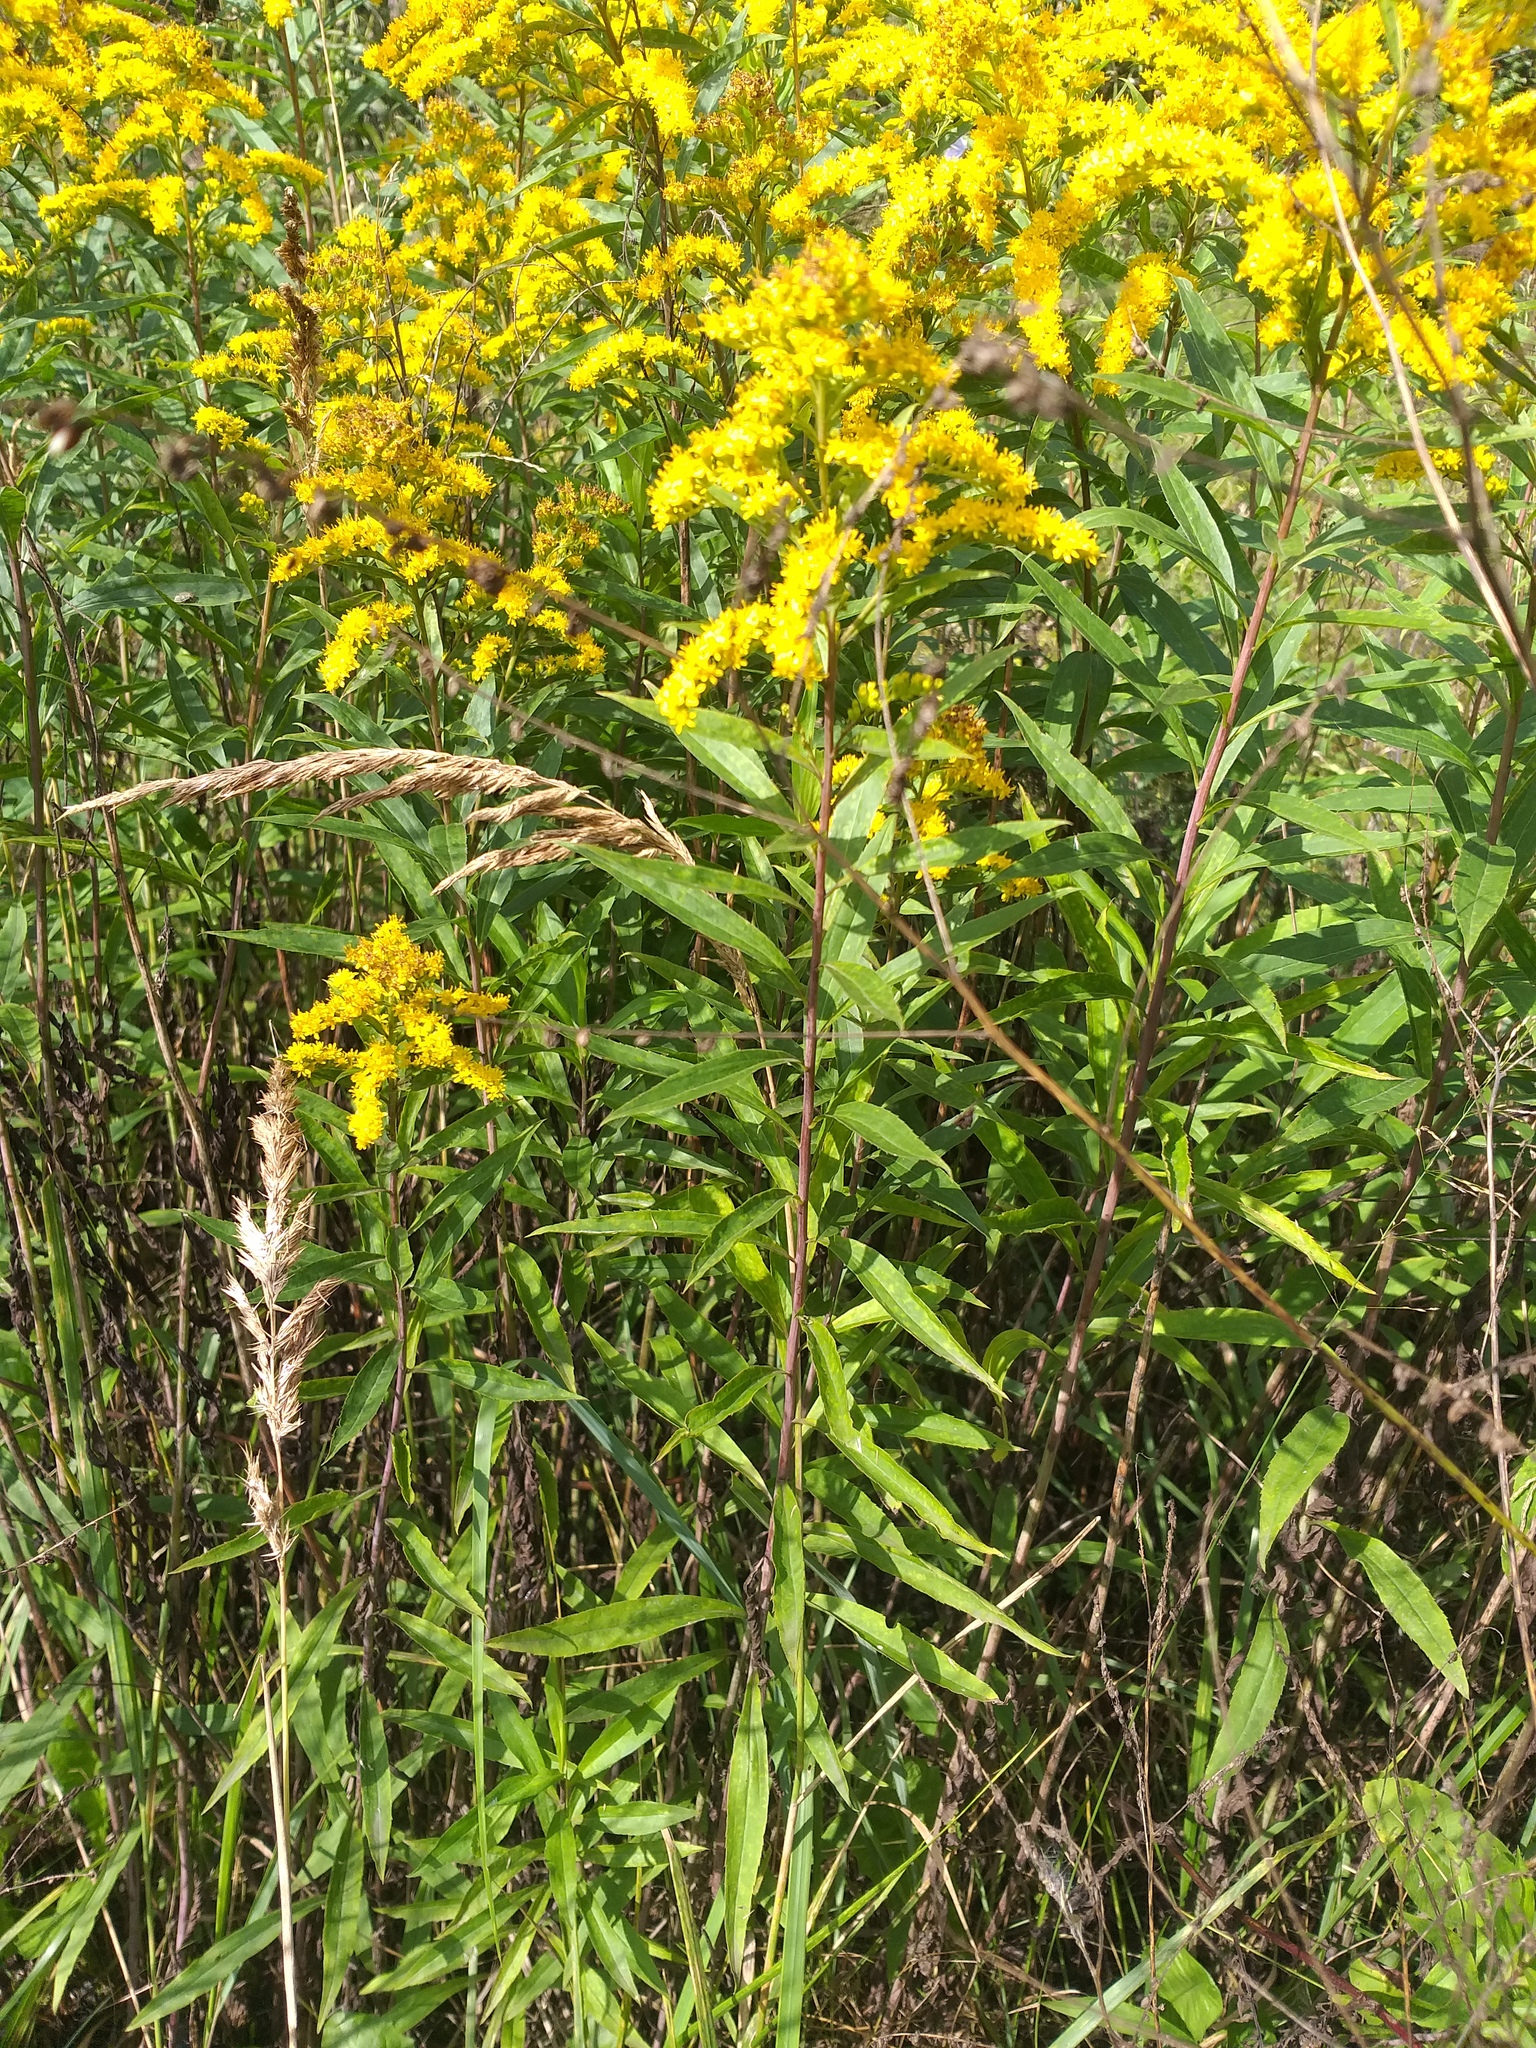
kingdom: Plantae
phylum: Tracheophyta
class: Magnoliopsida
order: Asterales
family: Asteraceae
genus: Solidago
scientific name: Solidago gigantea
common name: Giant goldenrod
